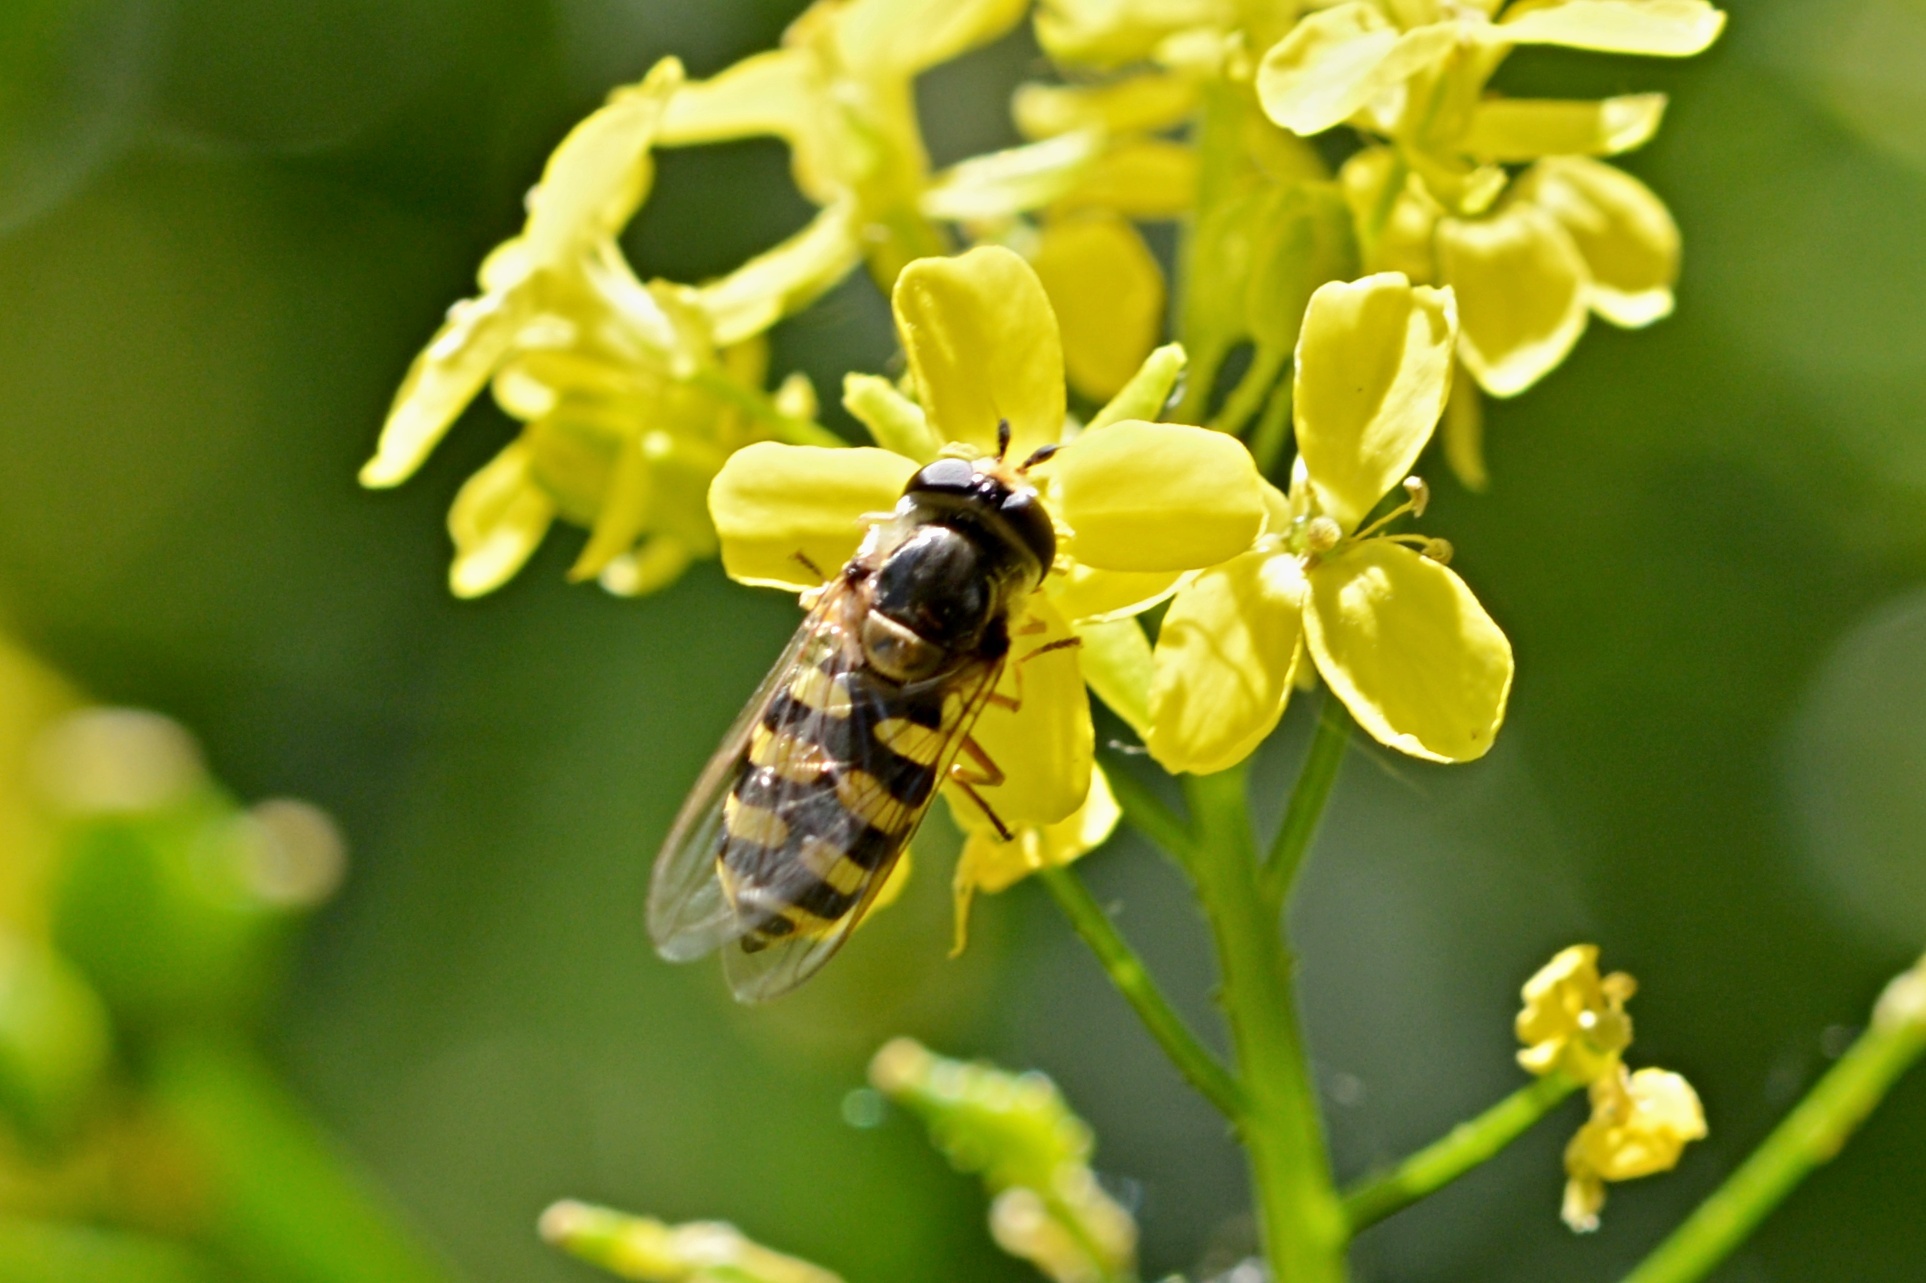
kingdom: Animalia
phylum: Arthropoda
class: Insecta
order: Diptera
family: Syrphidae
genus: Eupeodes
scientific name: Eupeodes corollae
